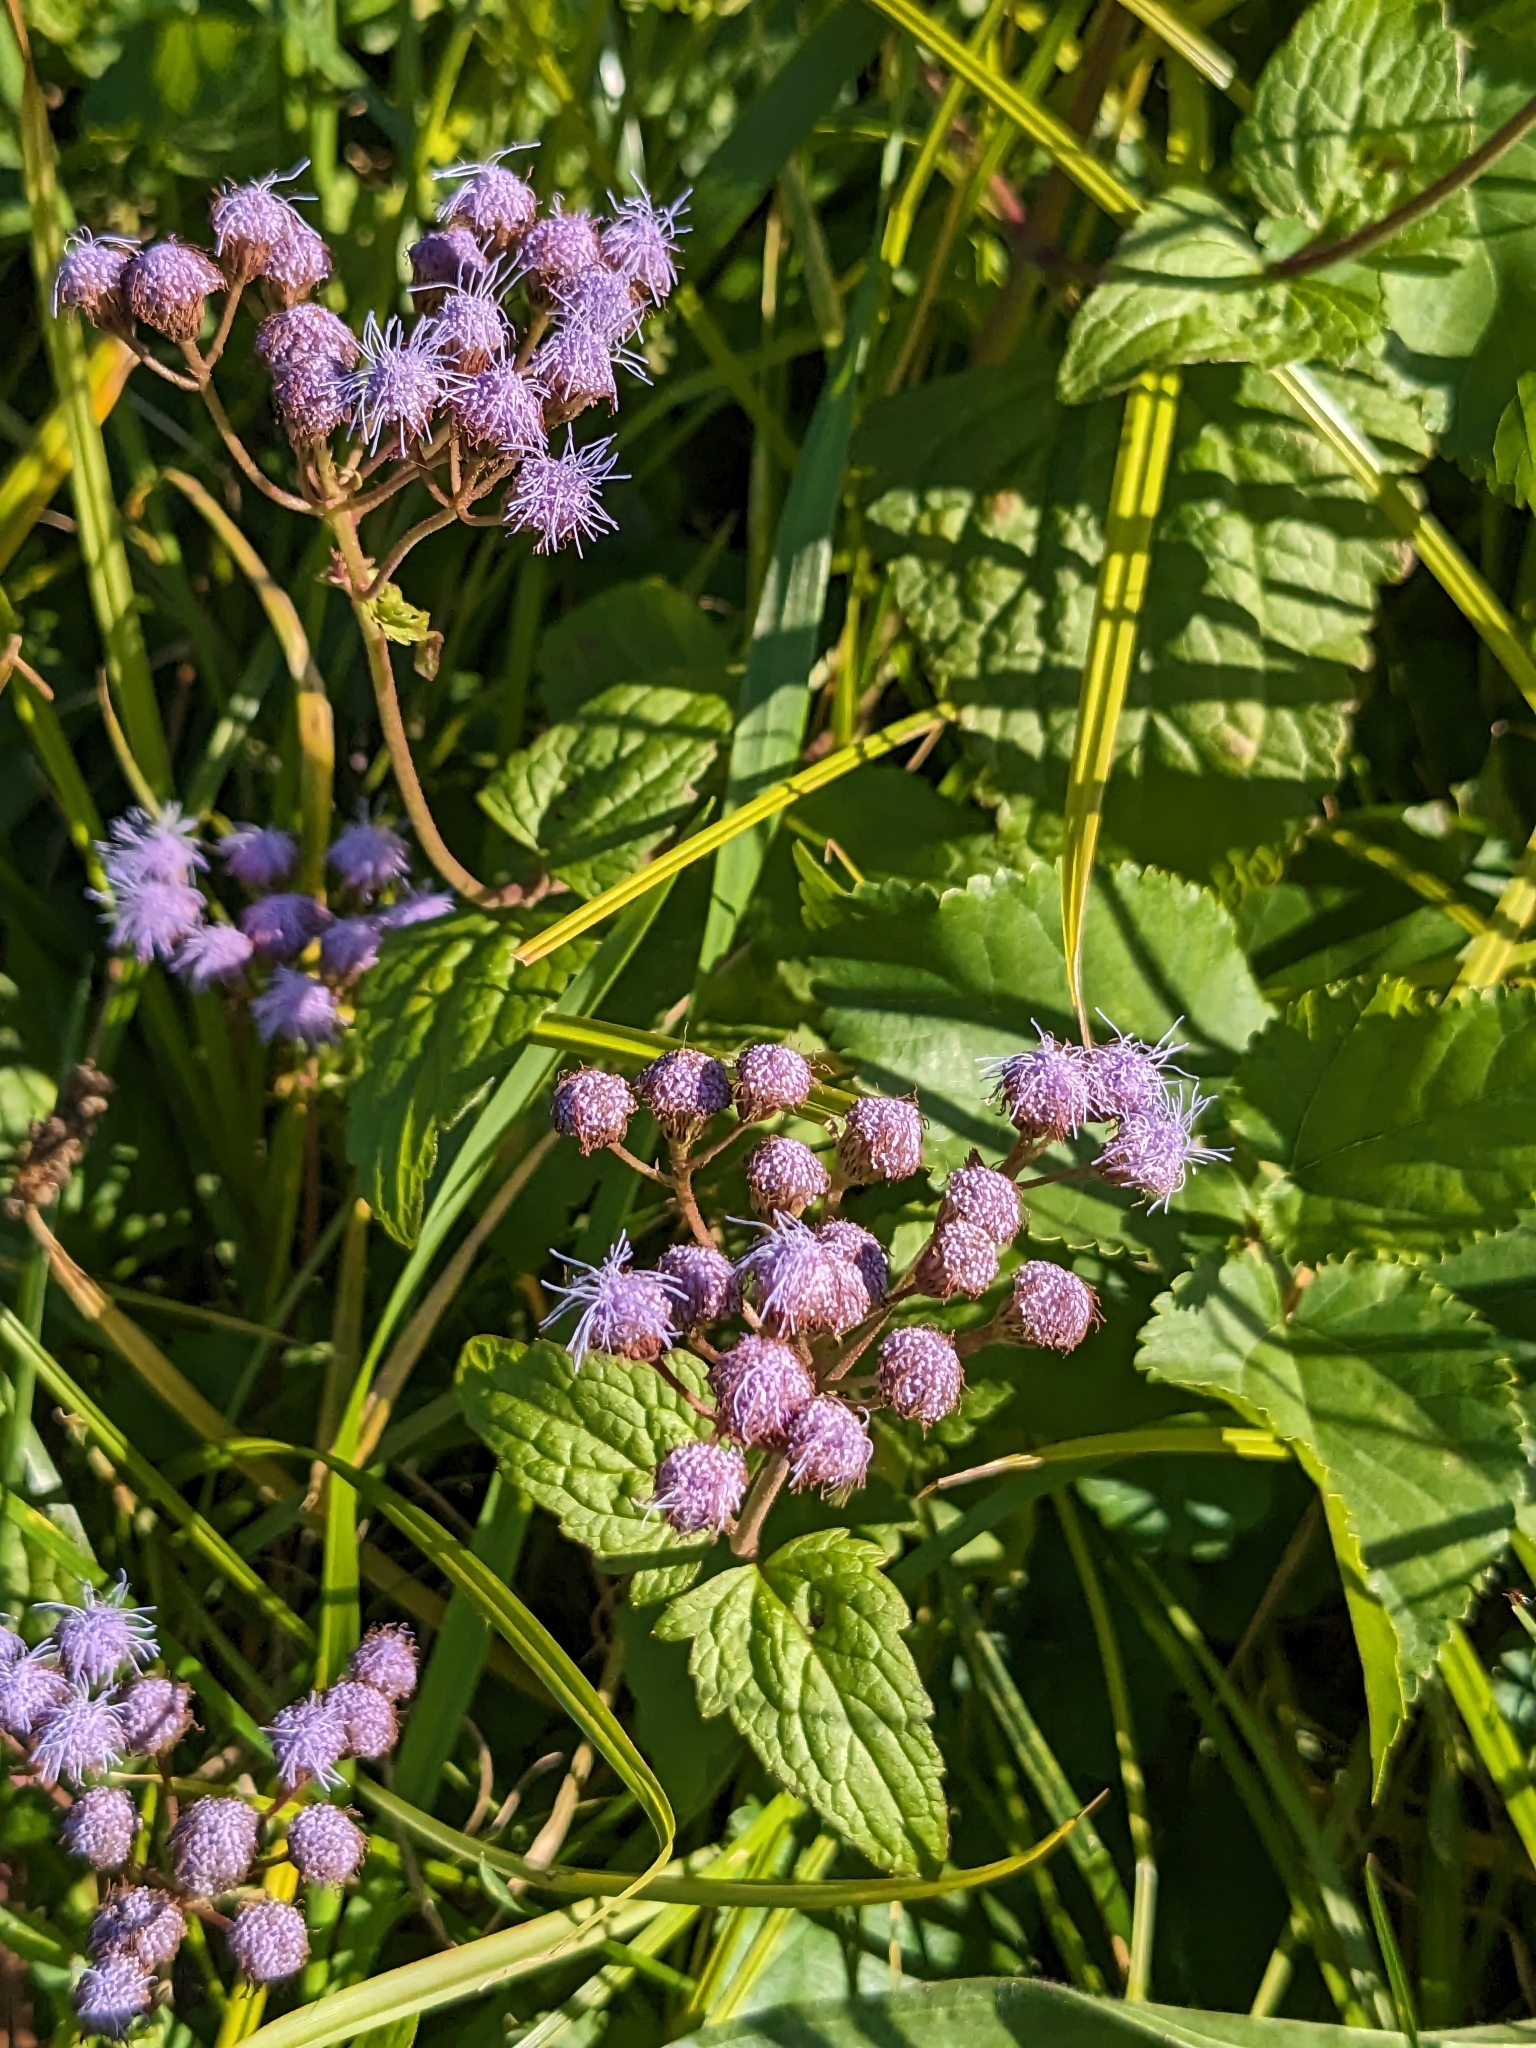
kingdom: Plantae
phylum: Tracheophyta
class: Magnoliopsida
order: Asterales
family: Asteraceae
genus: Conoclinium
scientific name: Conoclinium coelestinum
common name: Blue mistflower
